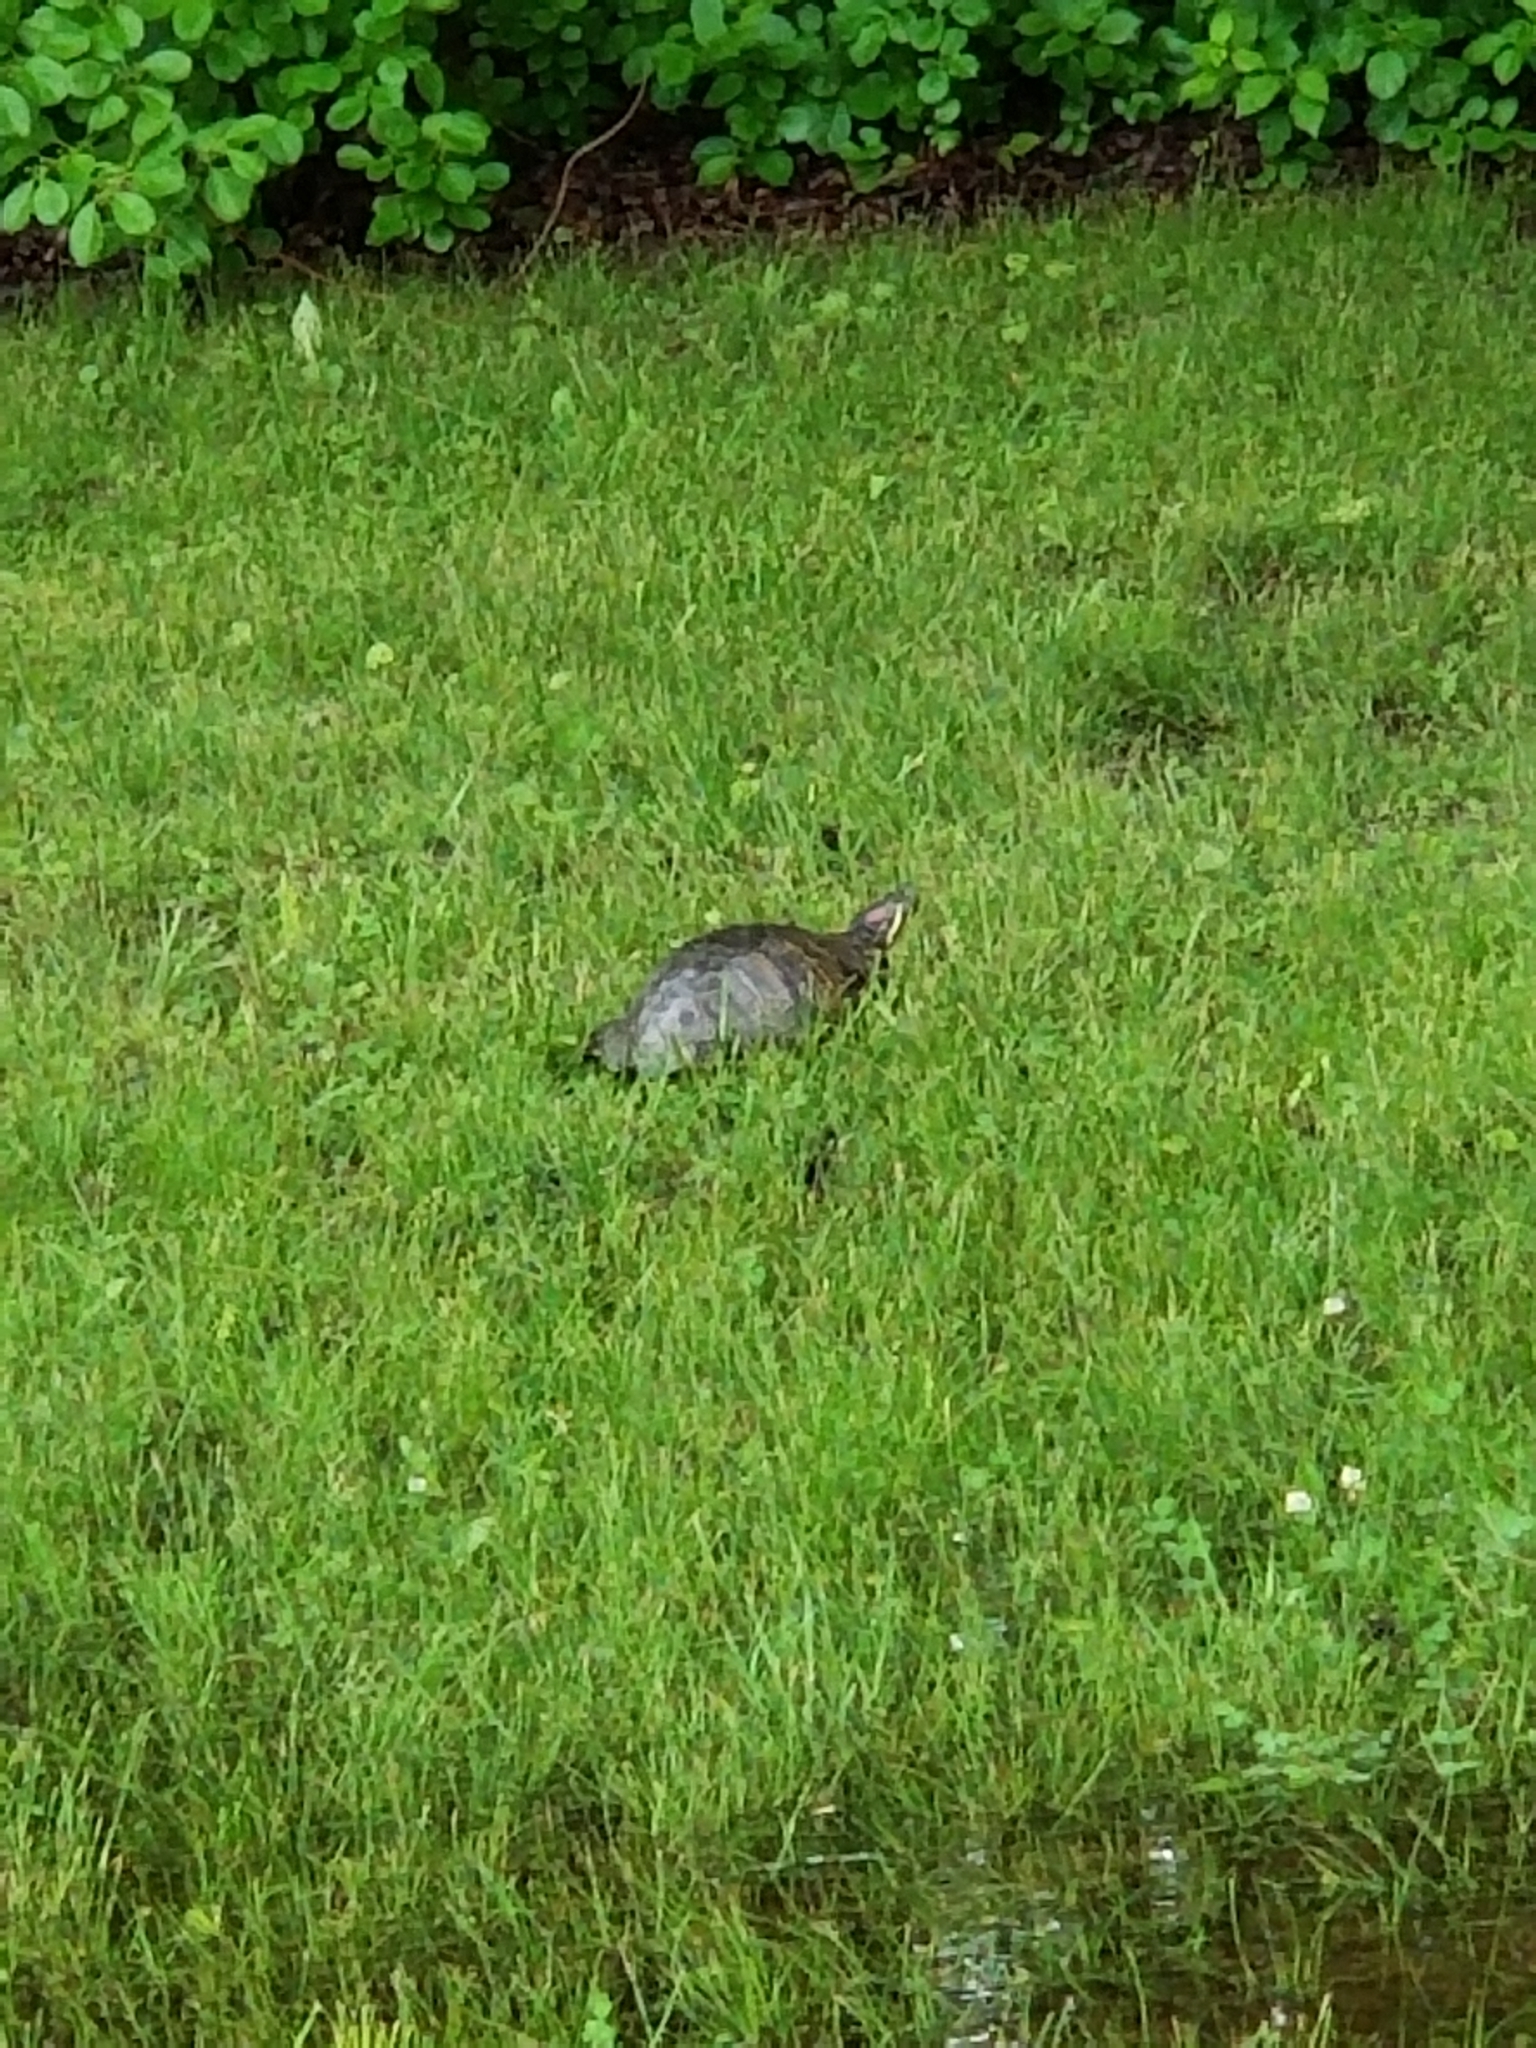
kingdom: Animalia
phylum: Chordata
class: Testudines
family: Emydidae
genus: Trachemys
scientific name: Trachemys scripta
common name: Slider
